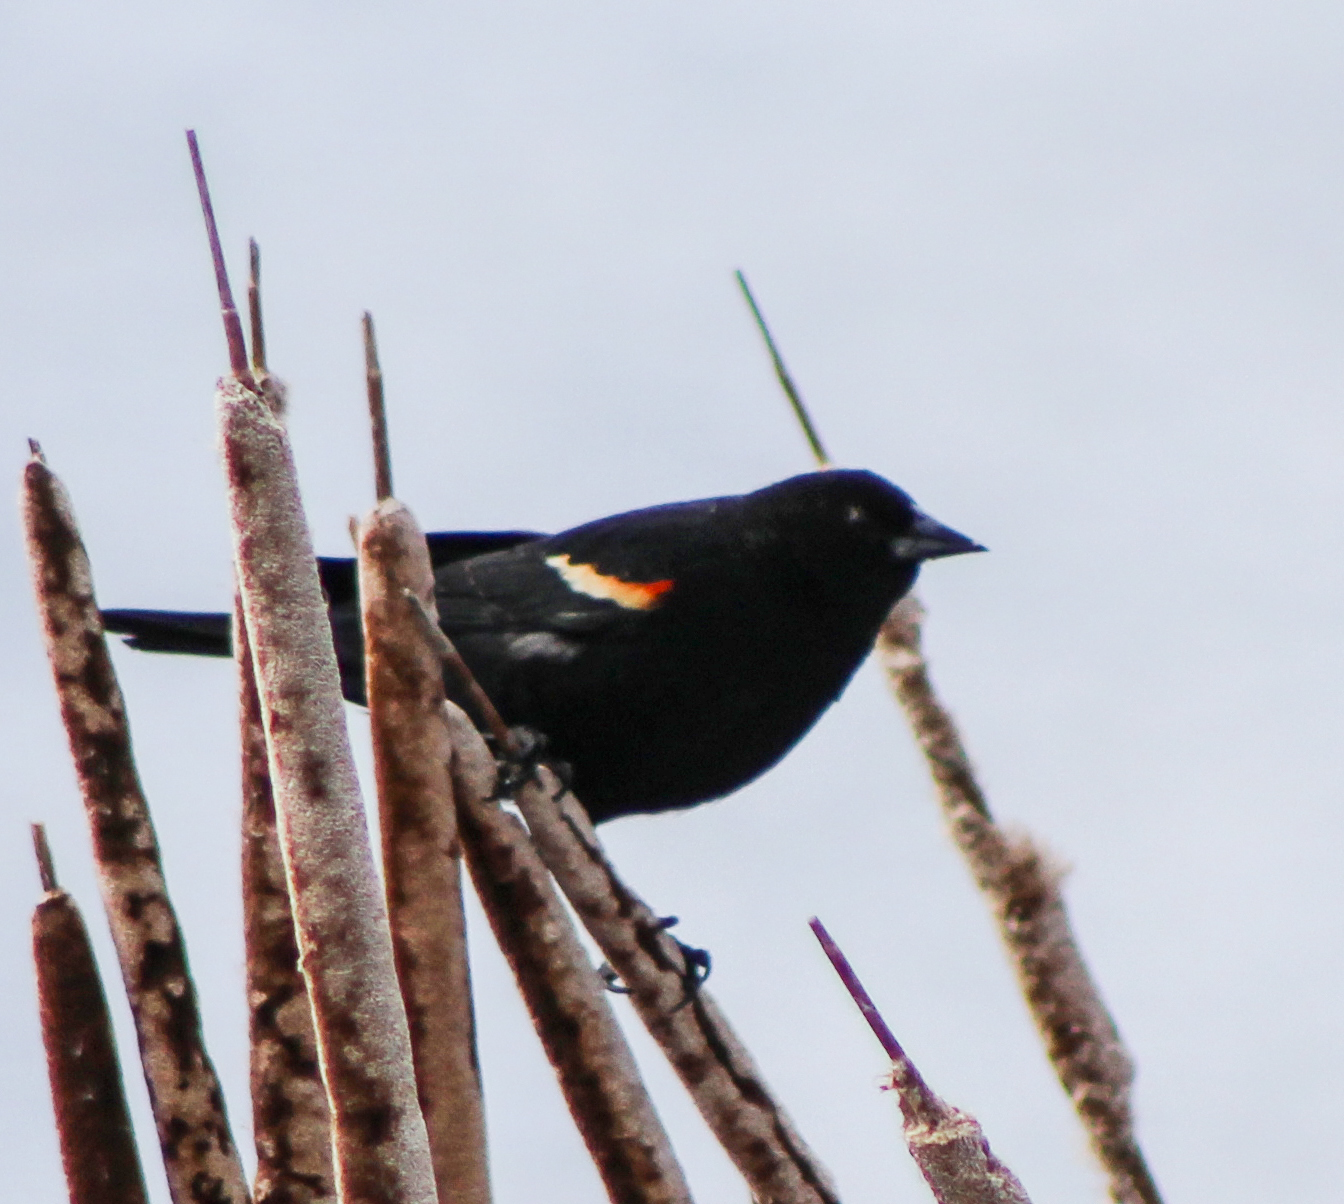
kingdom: Animalia
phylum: Chordata
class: Aves
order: Passeriformes
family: Icteridae
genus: Agelaius
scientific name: Agelaius phoeniceus
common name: Red-winged blackbird
